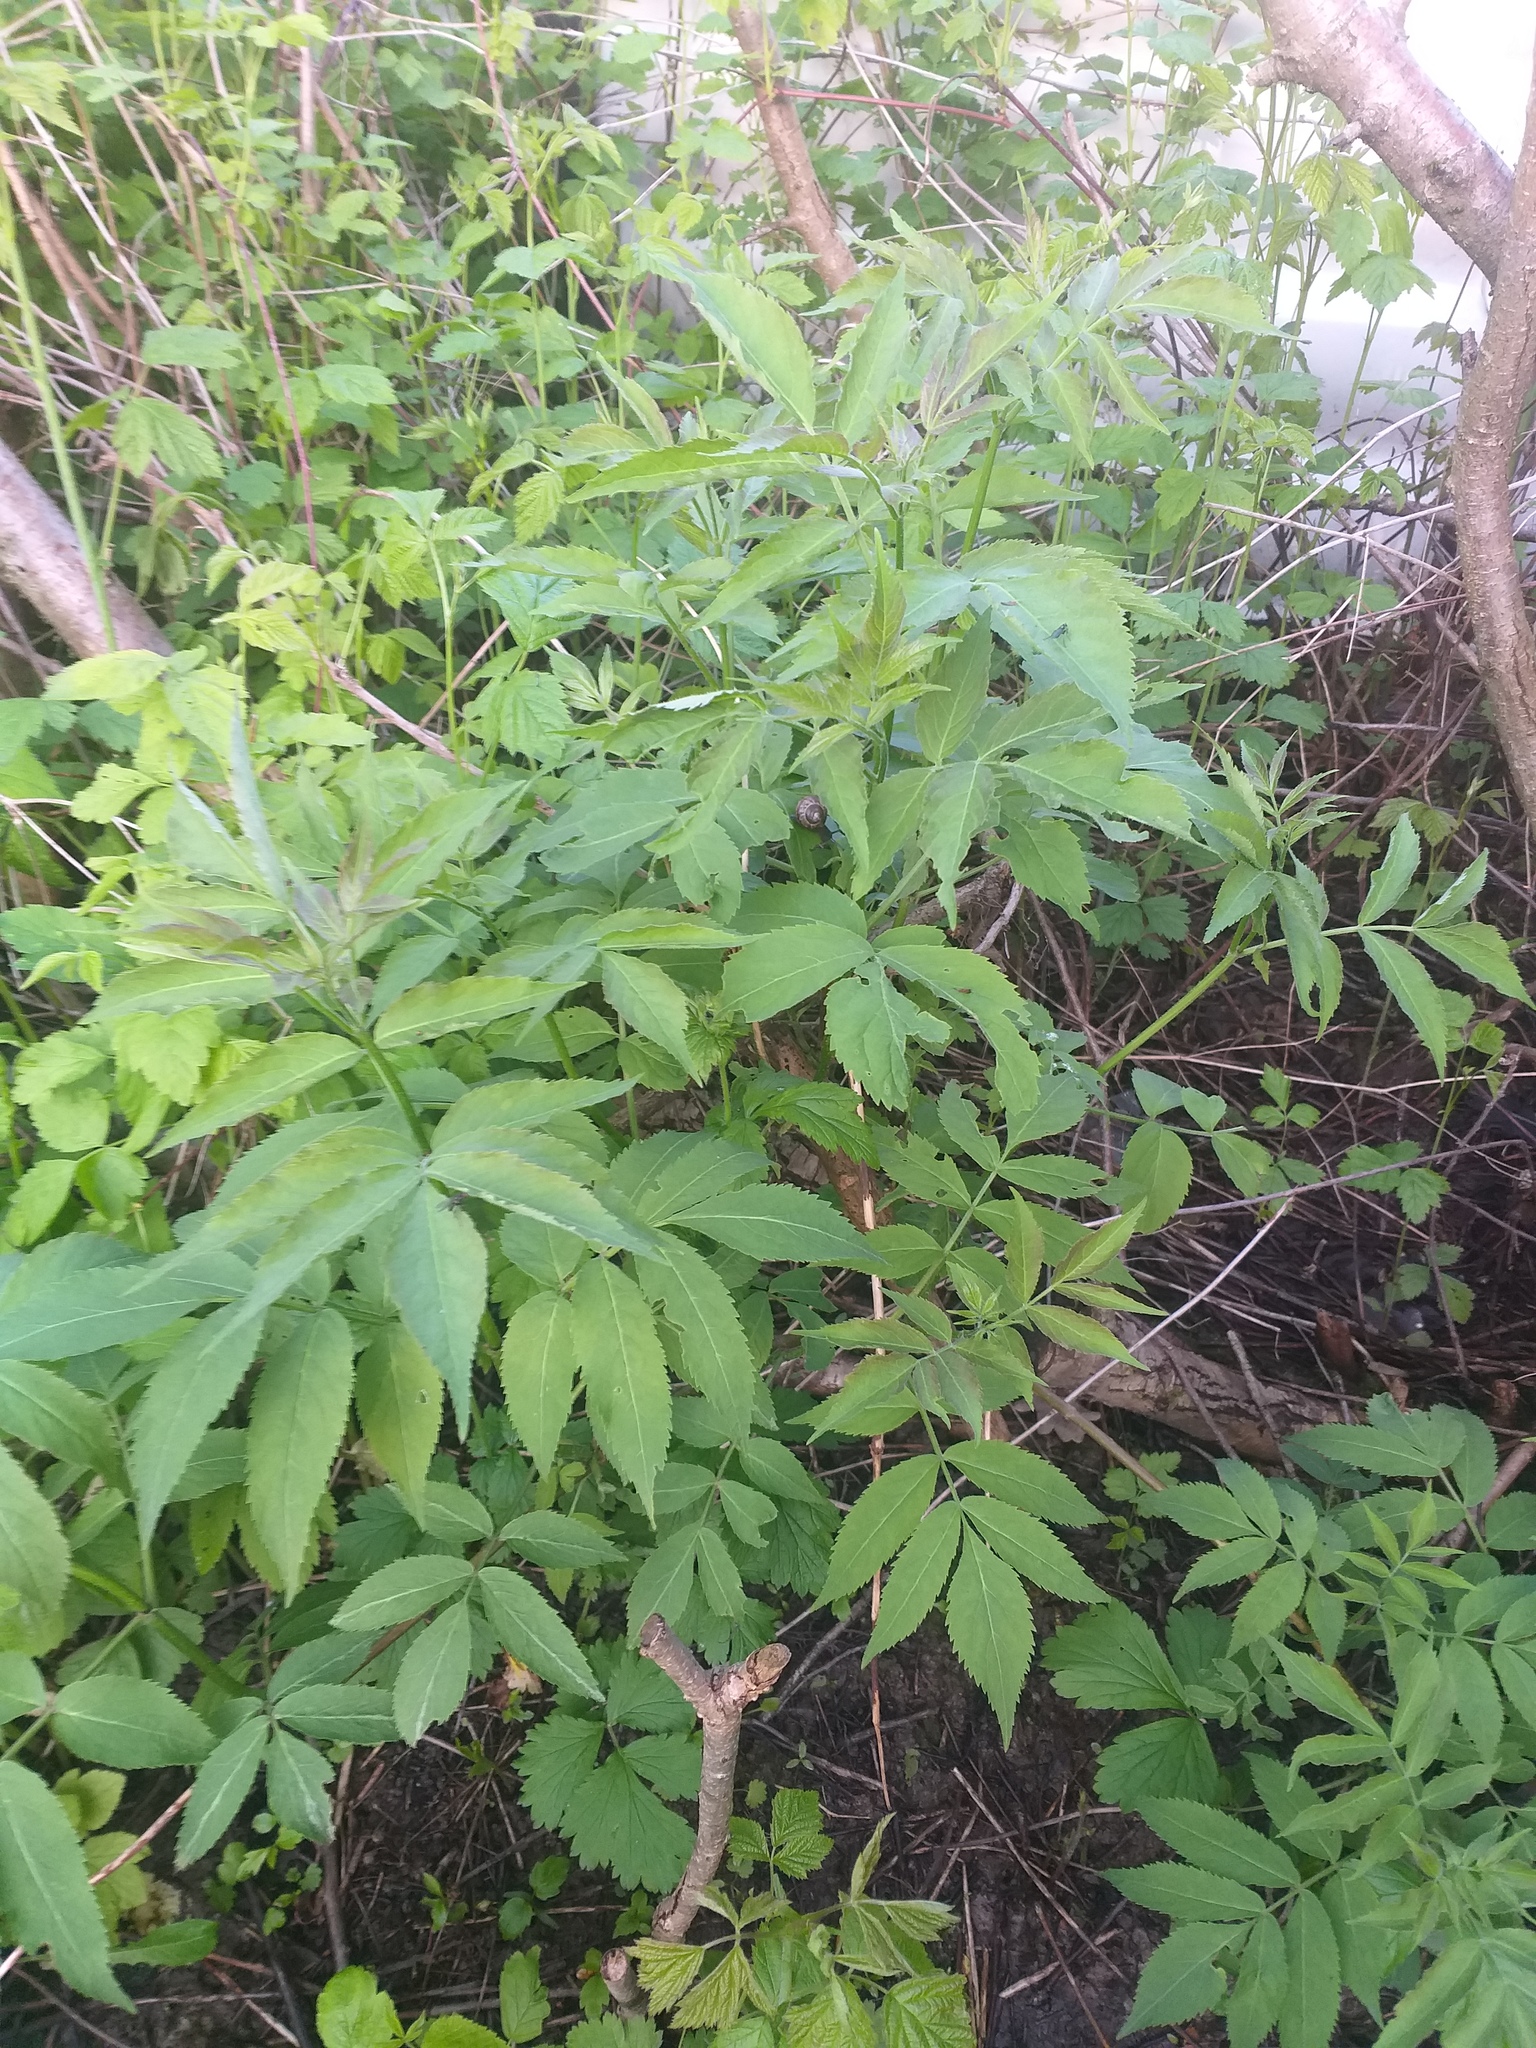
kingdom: Plantae
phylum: Tracheophyta
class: Magnoliopsida
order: Dipsacales
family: Viburnaceae
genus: Sambucus
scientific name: Sambucus racemosa
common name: Red-berried elder
